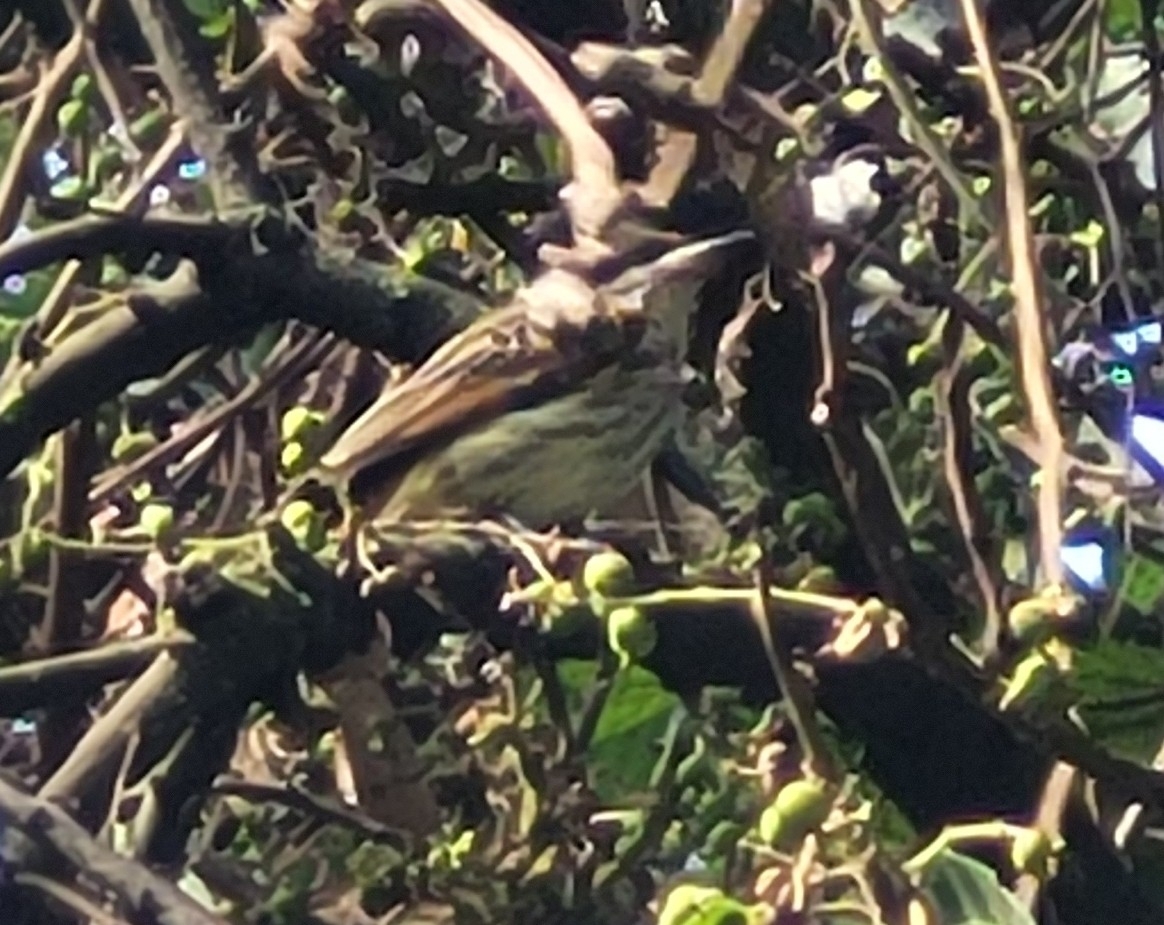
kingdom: Animalia
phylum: Chordata
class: Aves
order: Passeriformes
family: Tyrannidae
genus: Myiodynastes
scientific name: Myiodynastes maculatus
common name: Streaked flycatcher
